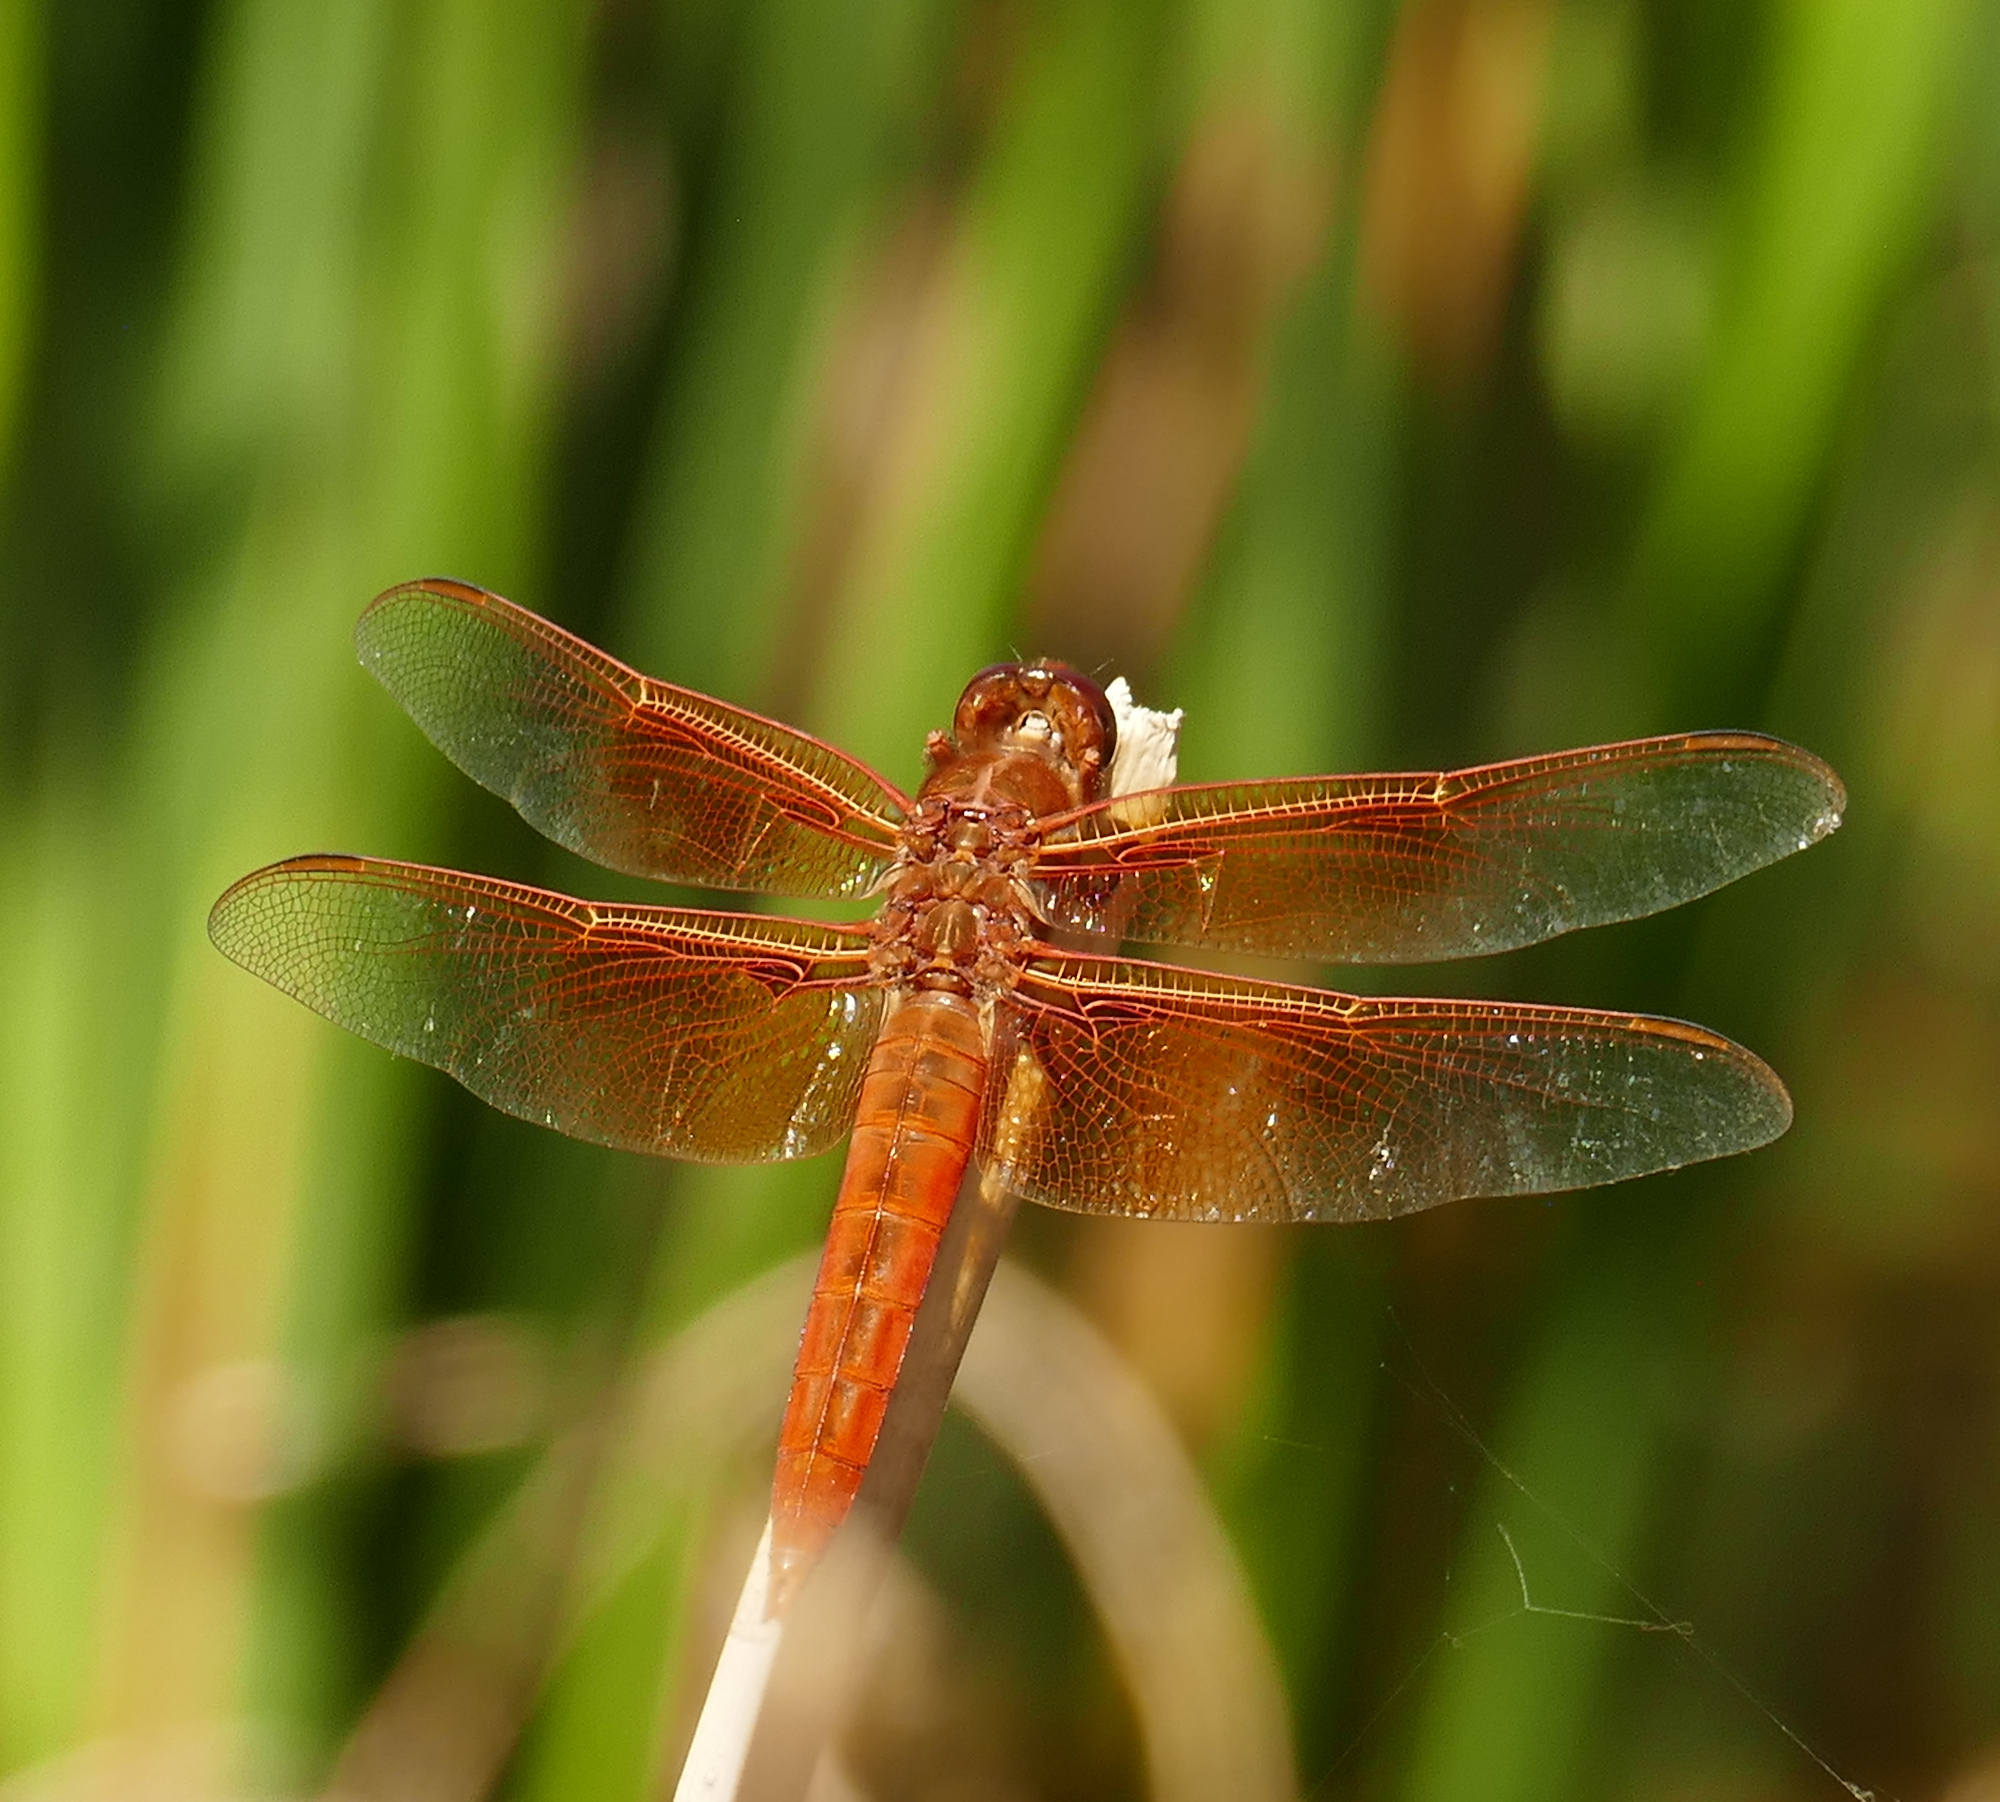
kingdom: Animalia
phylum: Arthropoda
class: Insecta
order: Odonata
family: Libellulidae
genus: Libellula
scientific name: Libellula saturata
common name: Flame skimmer
